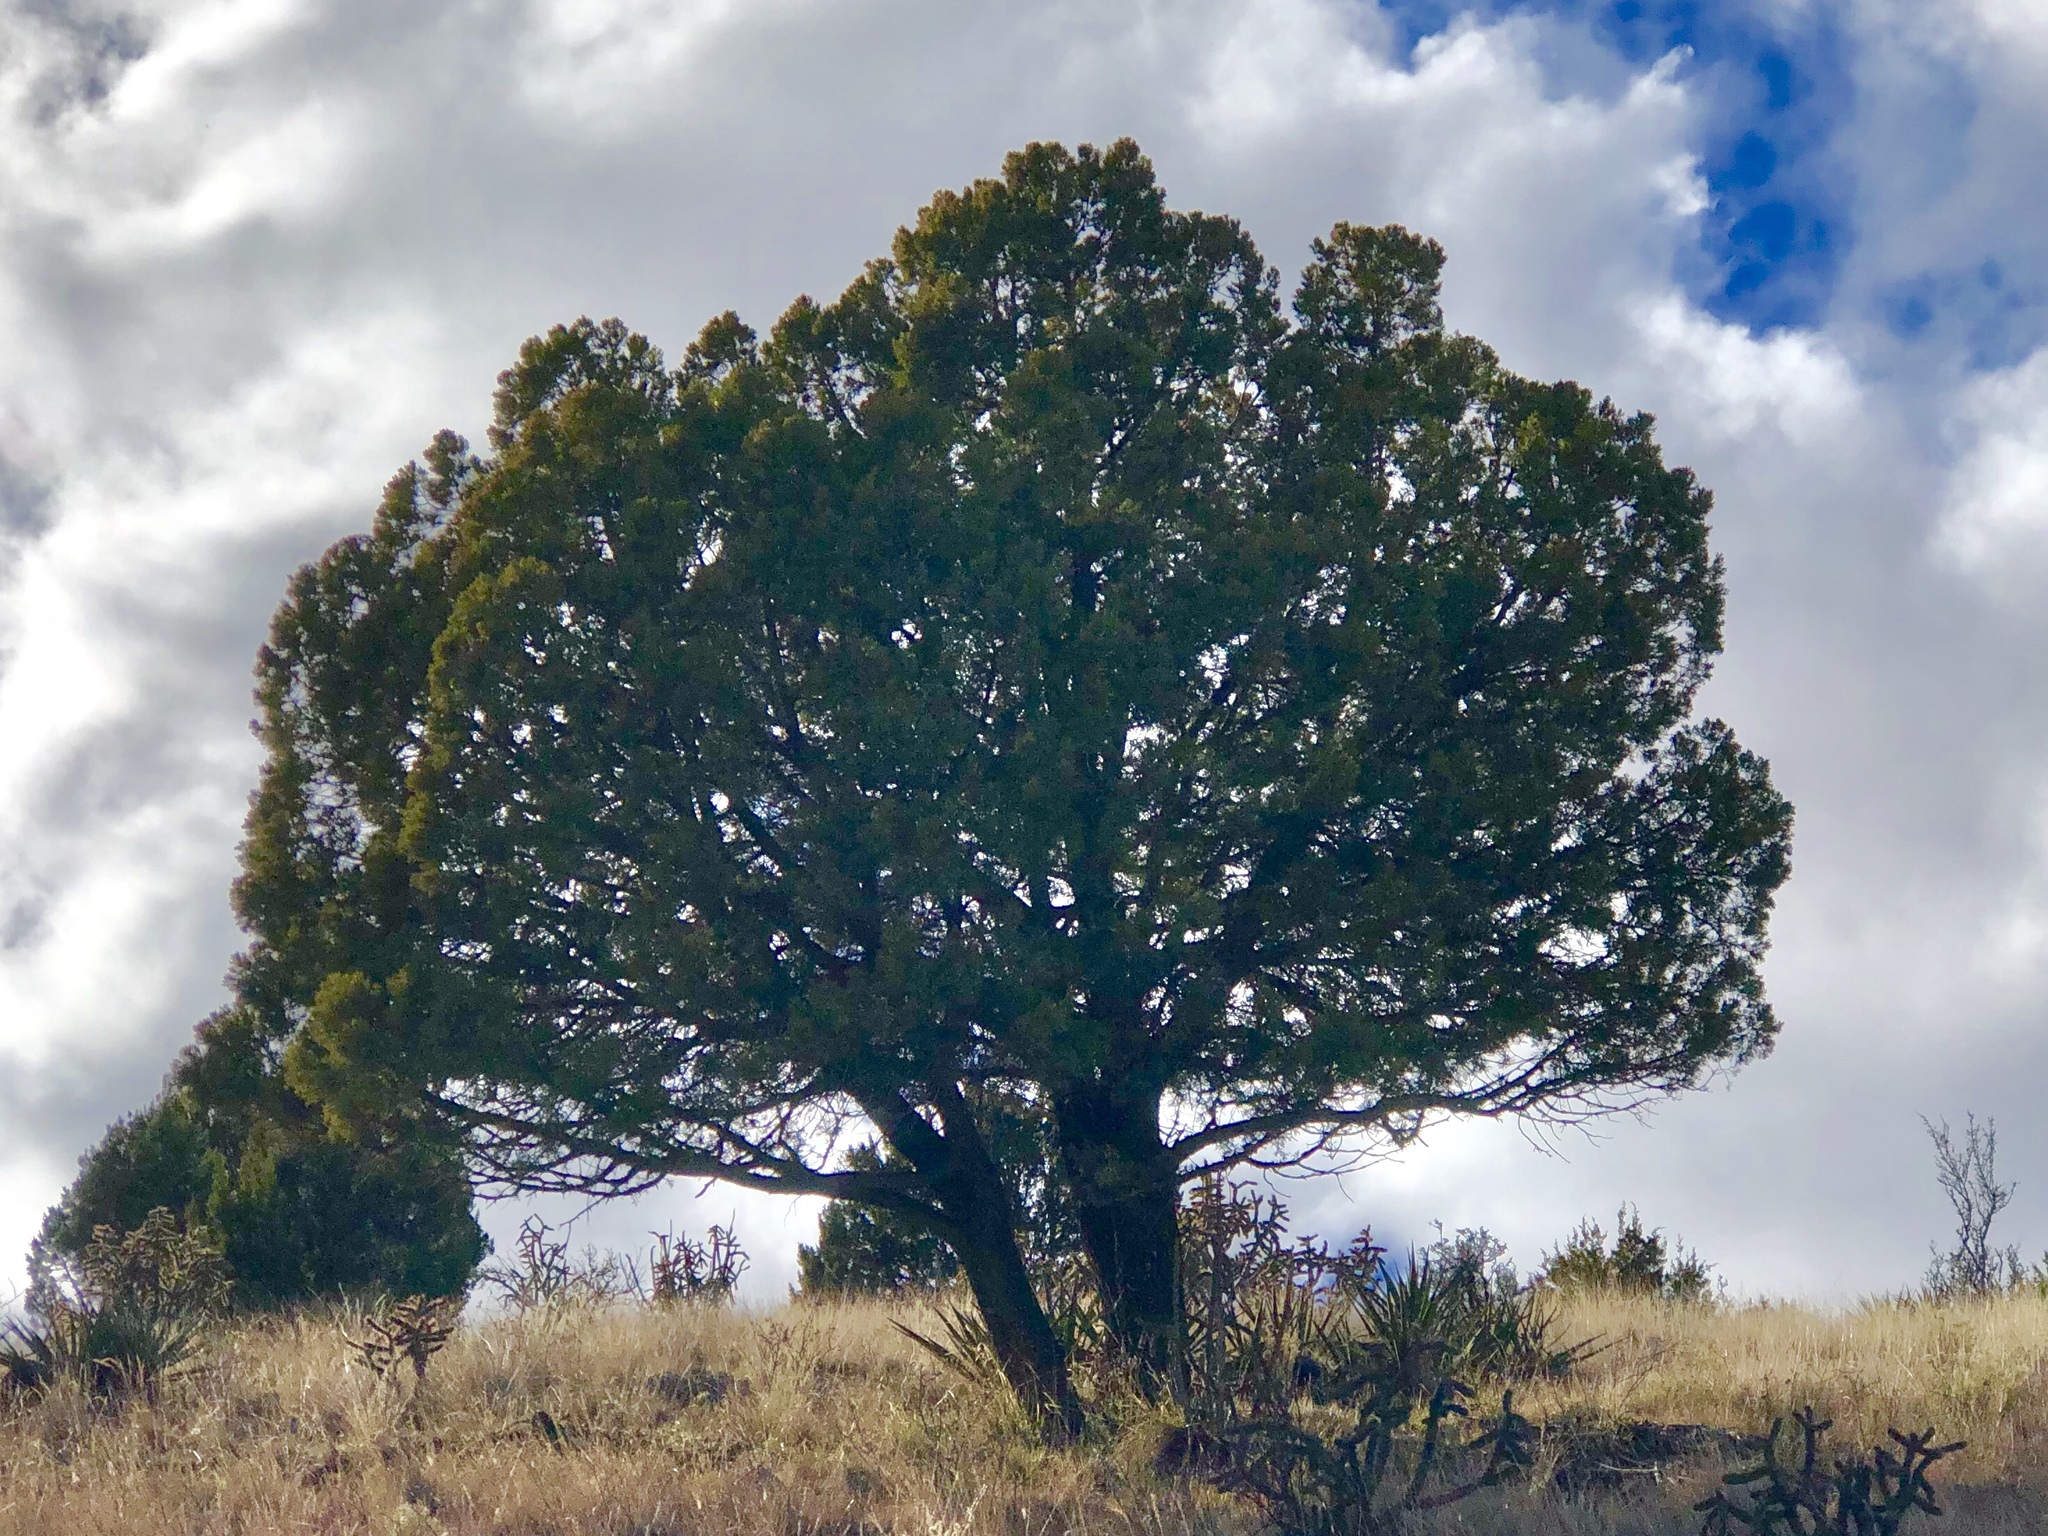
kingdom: Plantae
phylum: Tracheophyta
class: Pinopsida
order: Pinales
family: Cupressaceae
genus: Juniperus
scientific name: Juniperus deppeana
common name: Alligator juniper
